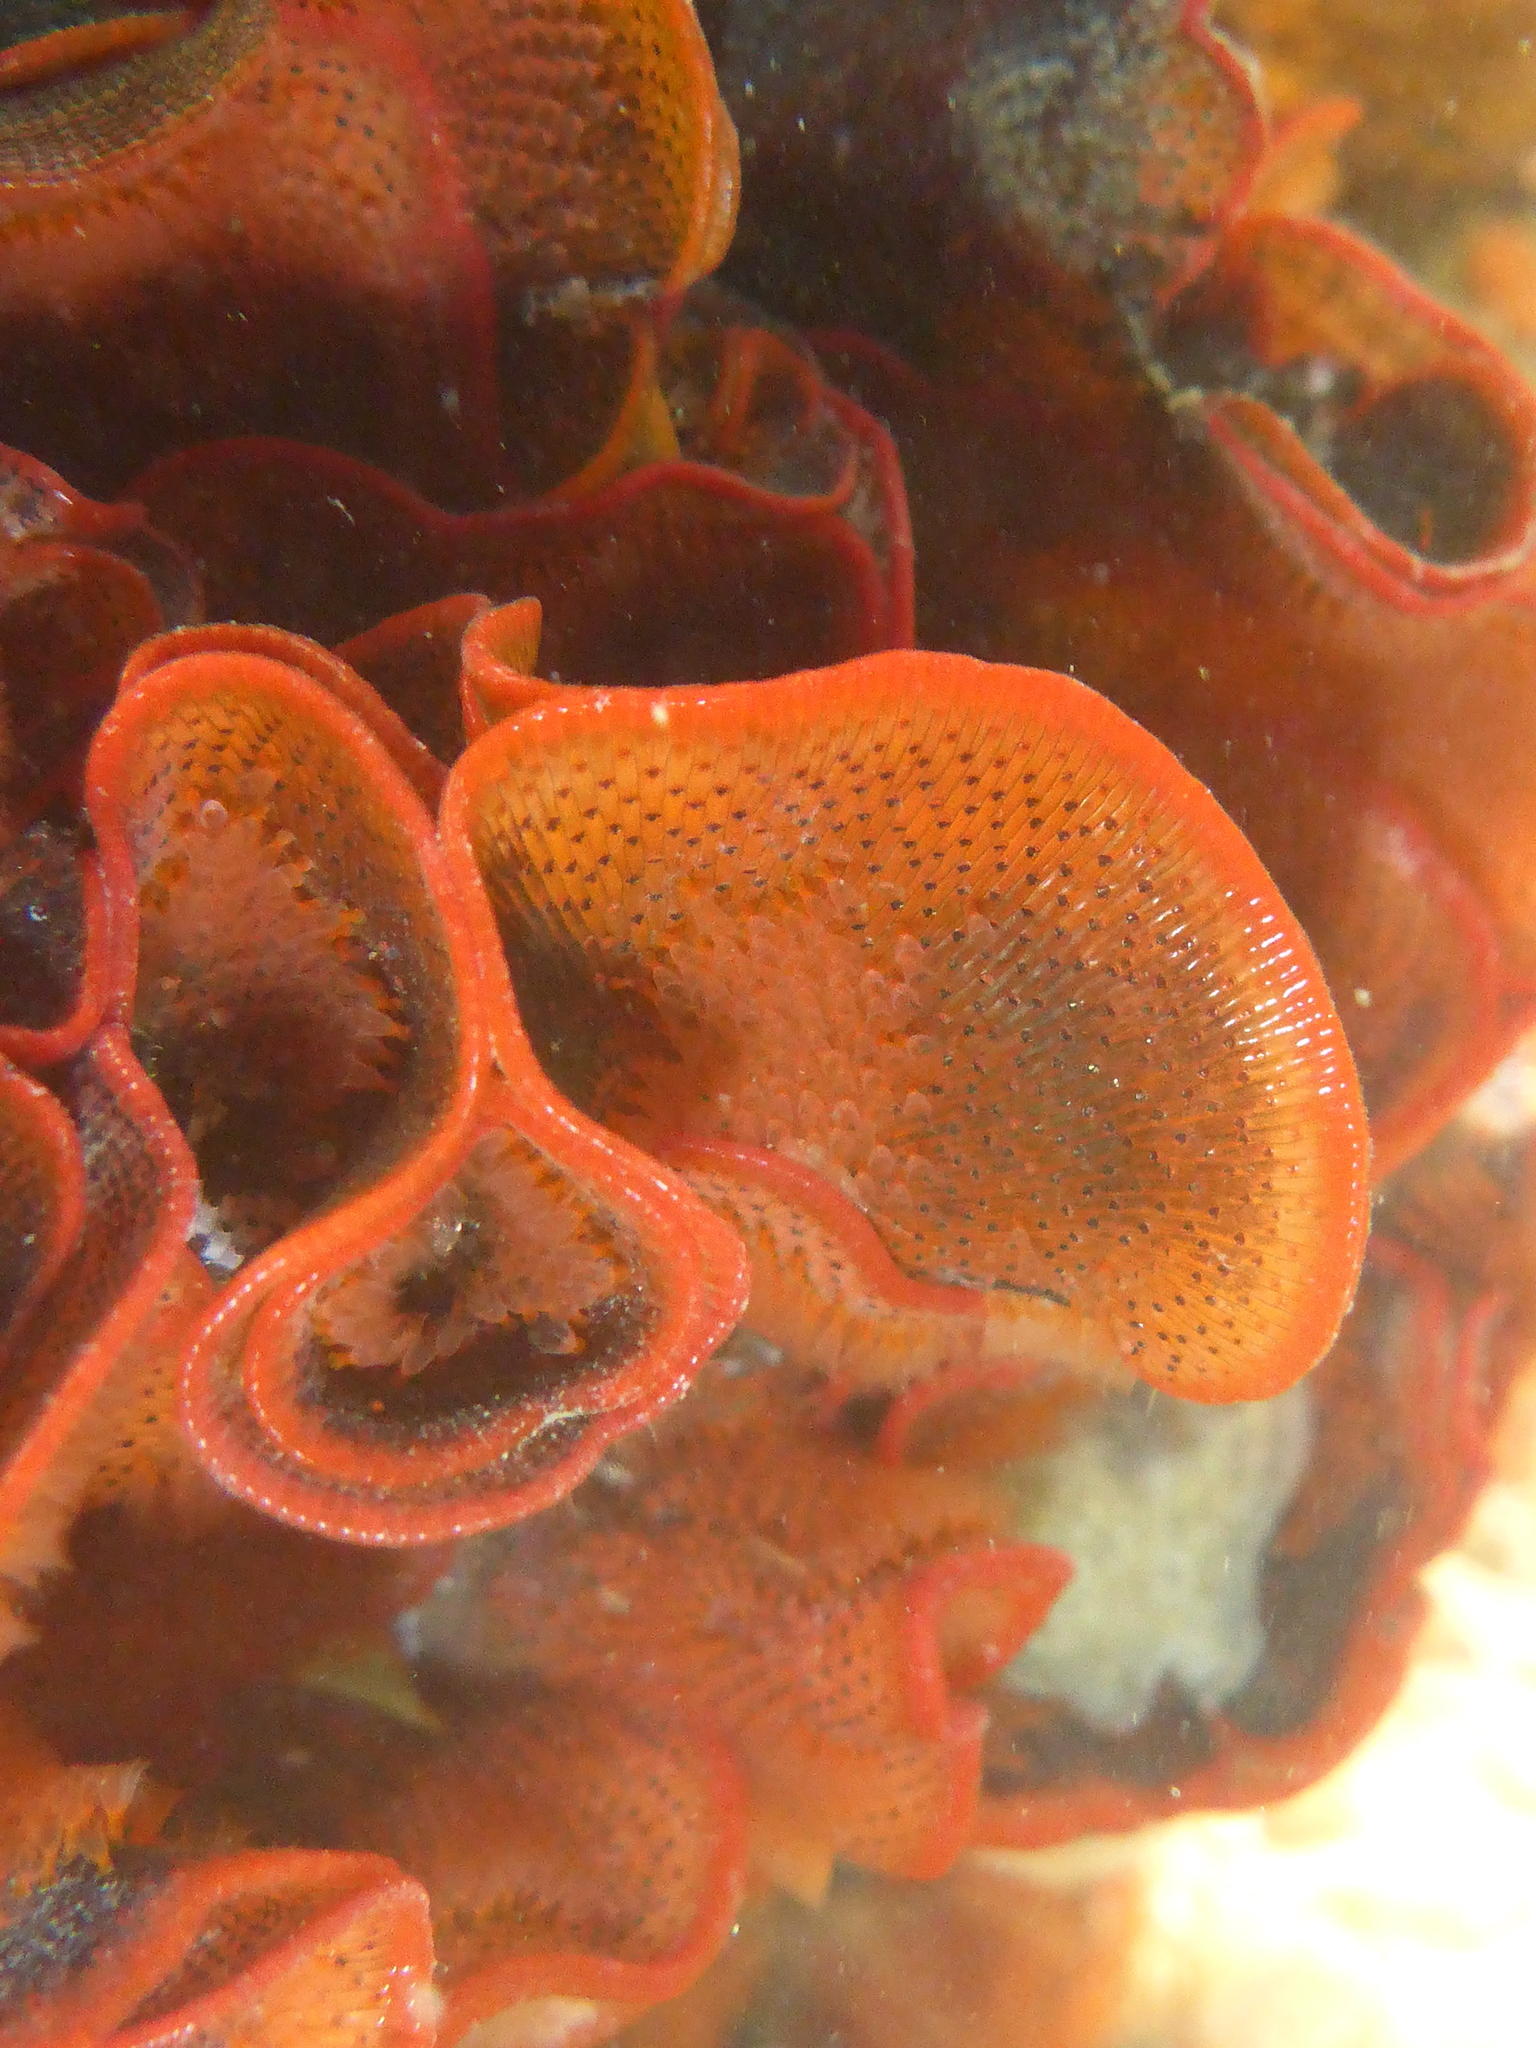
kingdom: Animalia
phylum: Bryozoa
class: Gymnolaemata
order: Cheilostomatida
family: Watersiporidae
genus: Watersipora
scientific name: Watersipora subtorquata
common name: Bryozoan
